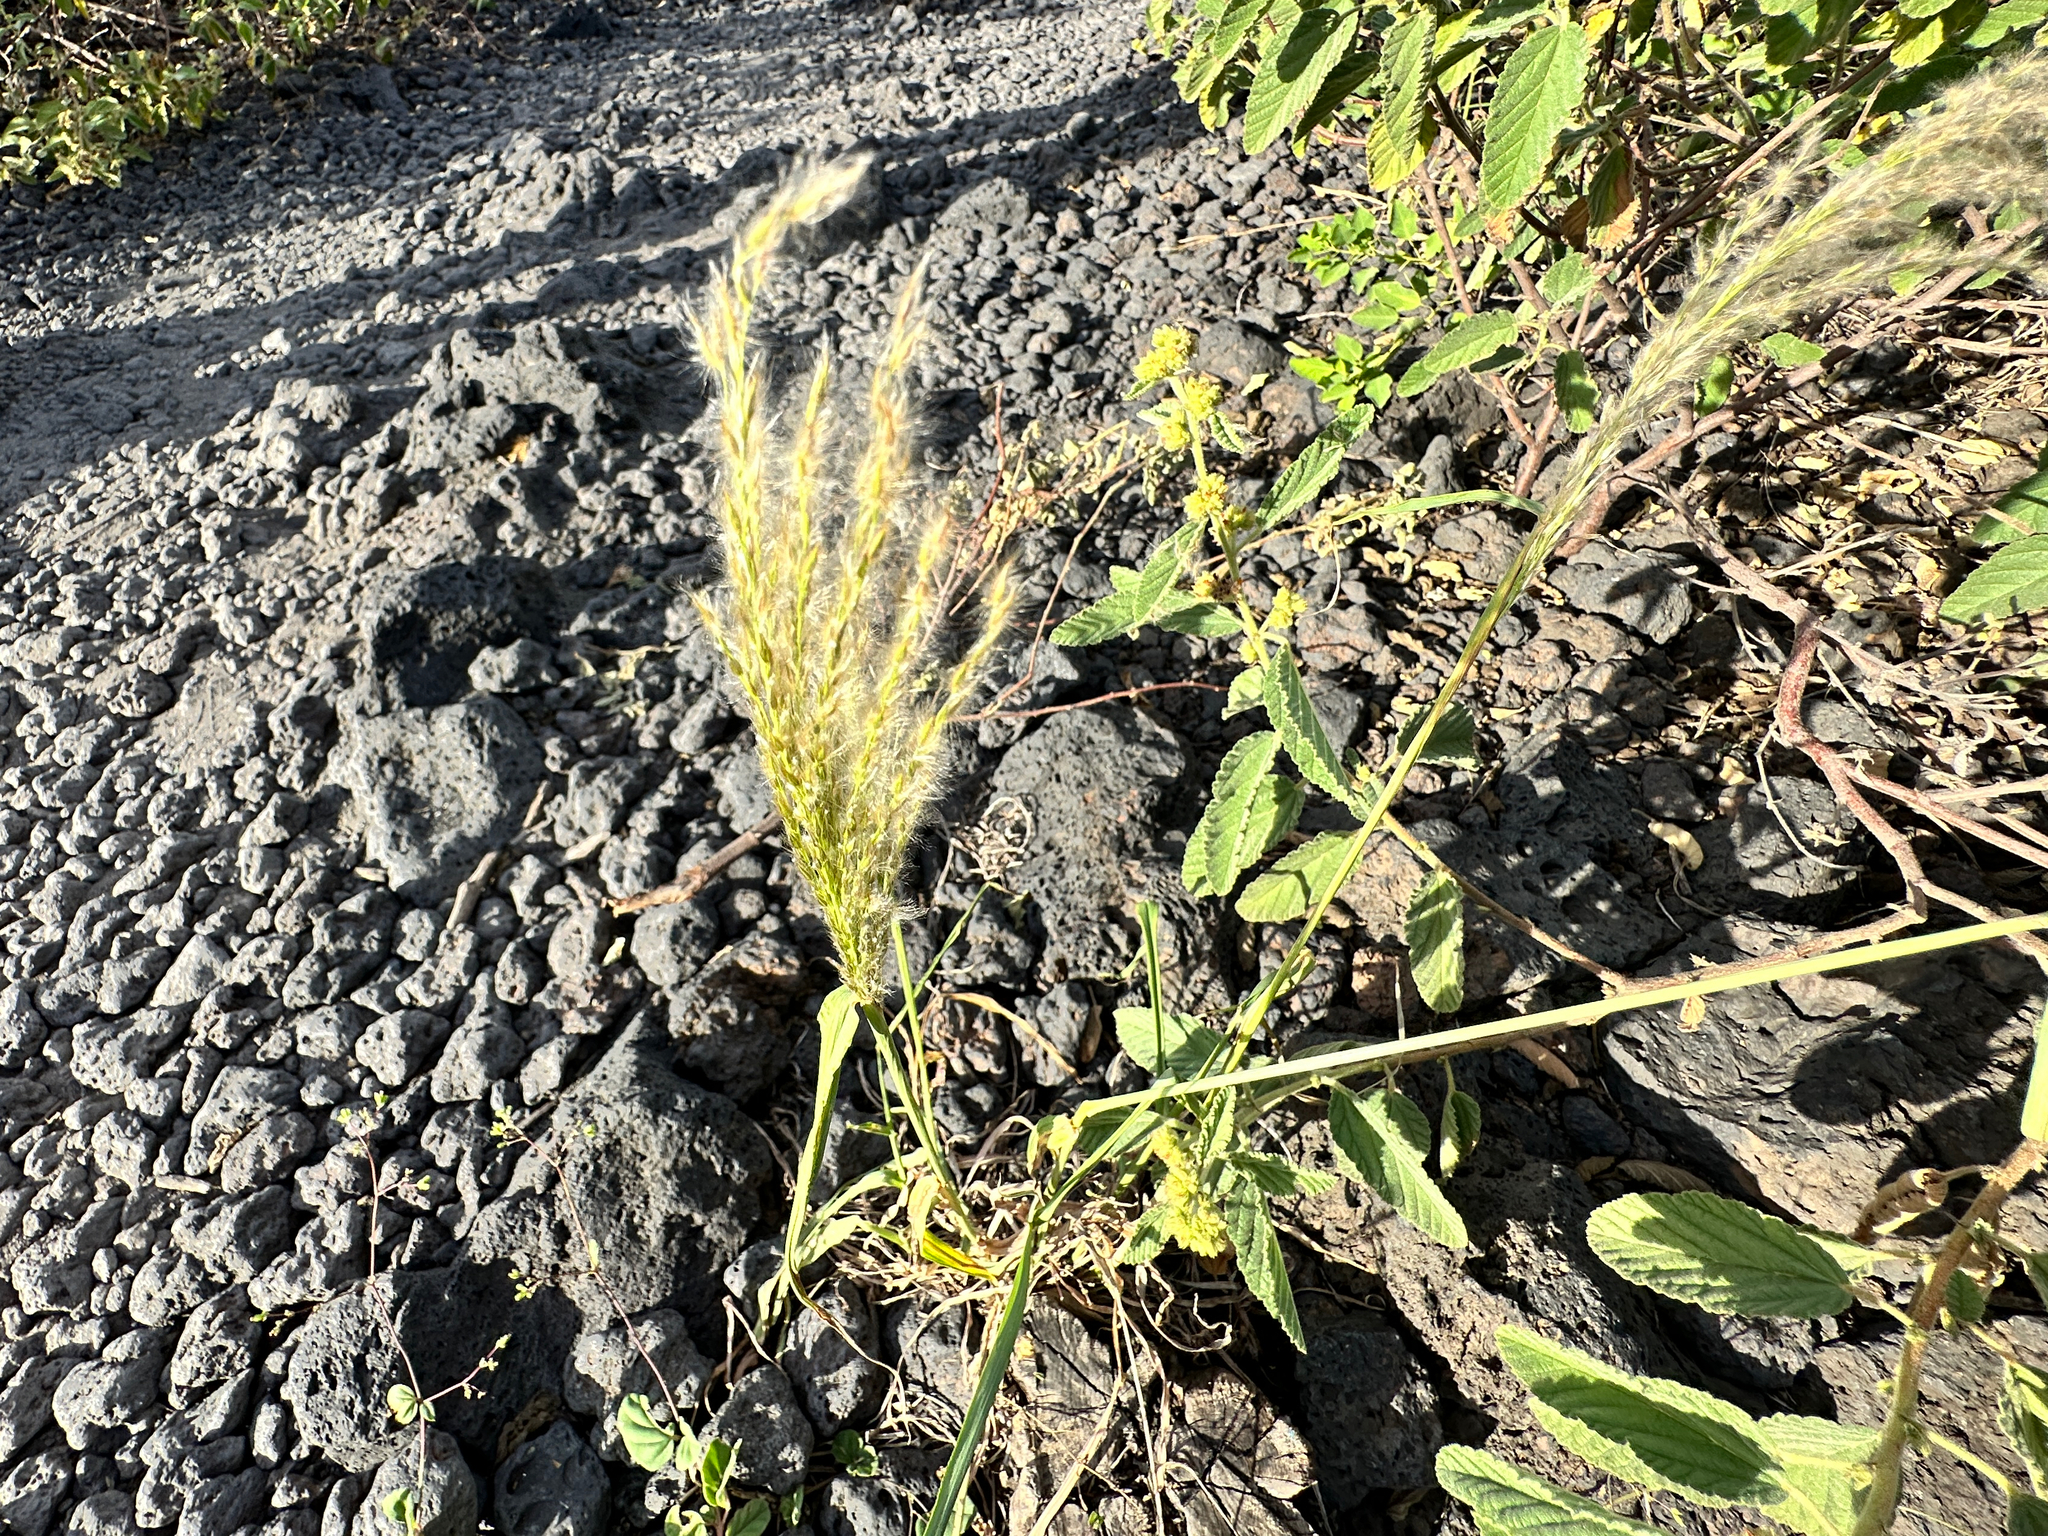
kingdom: Plantae
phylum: Tracheophyta
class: Liliopsida
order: Poales
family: Poaceae
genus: Digitaria
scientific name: Digitaria insularis
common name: Sourgrass
